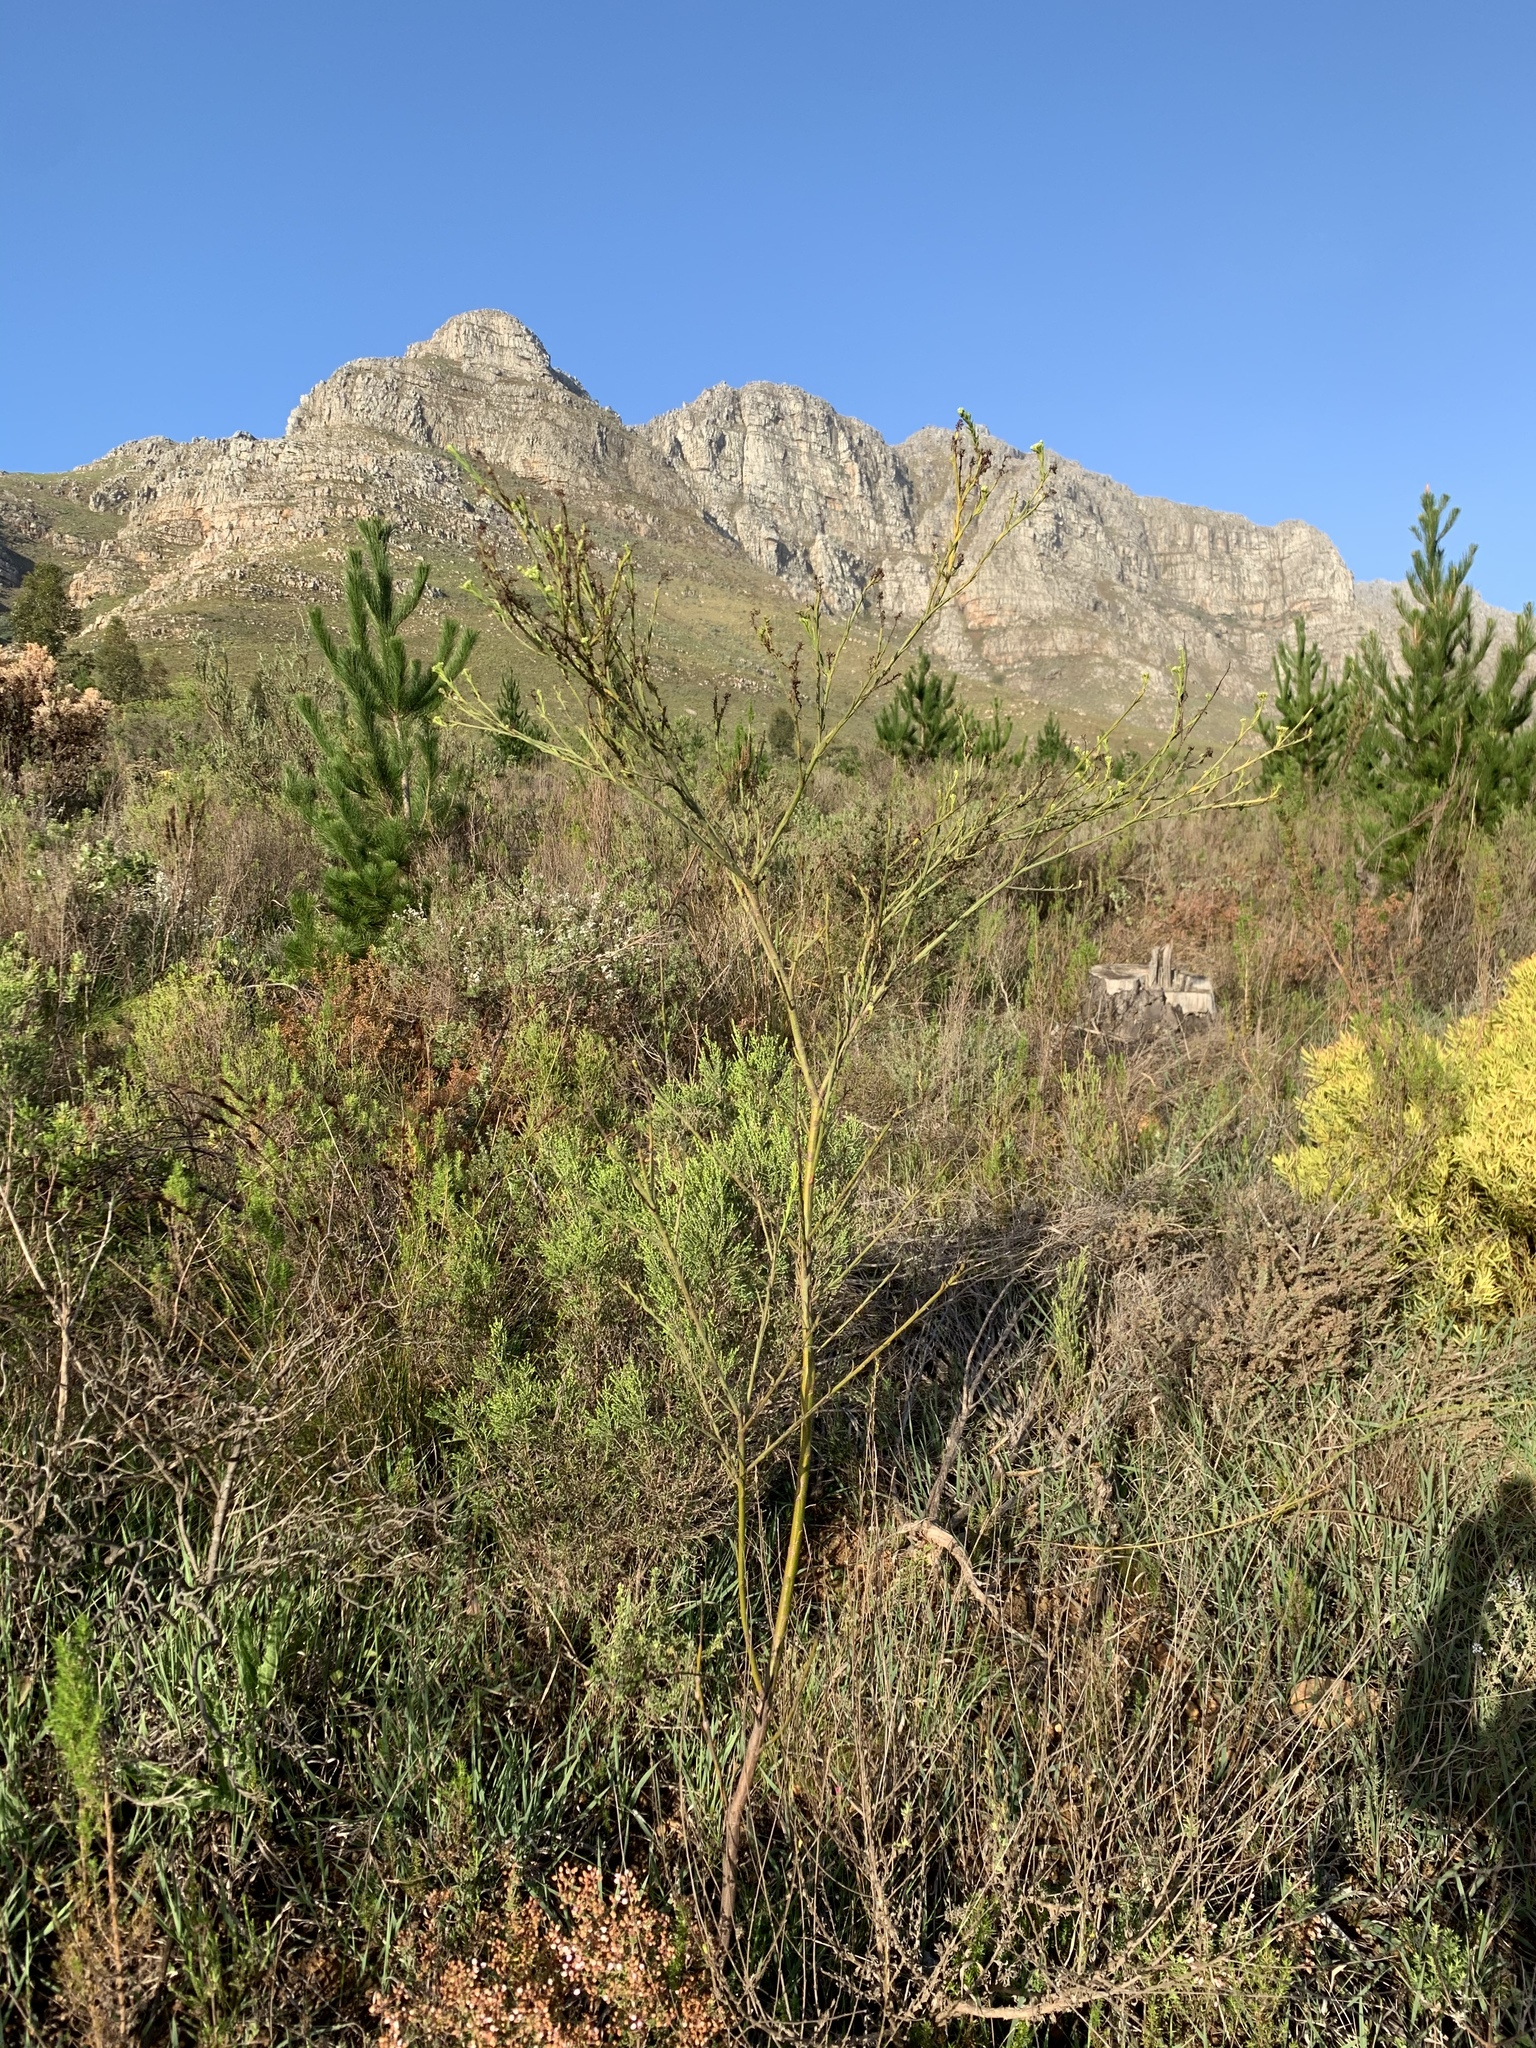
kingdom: Plantae
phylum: Tracheophyta
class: Magnoliopsida
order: Santalales
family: Thesiaceae
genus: Thesium
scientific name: Thesium strictum
